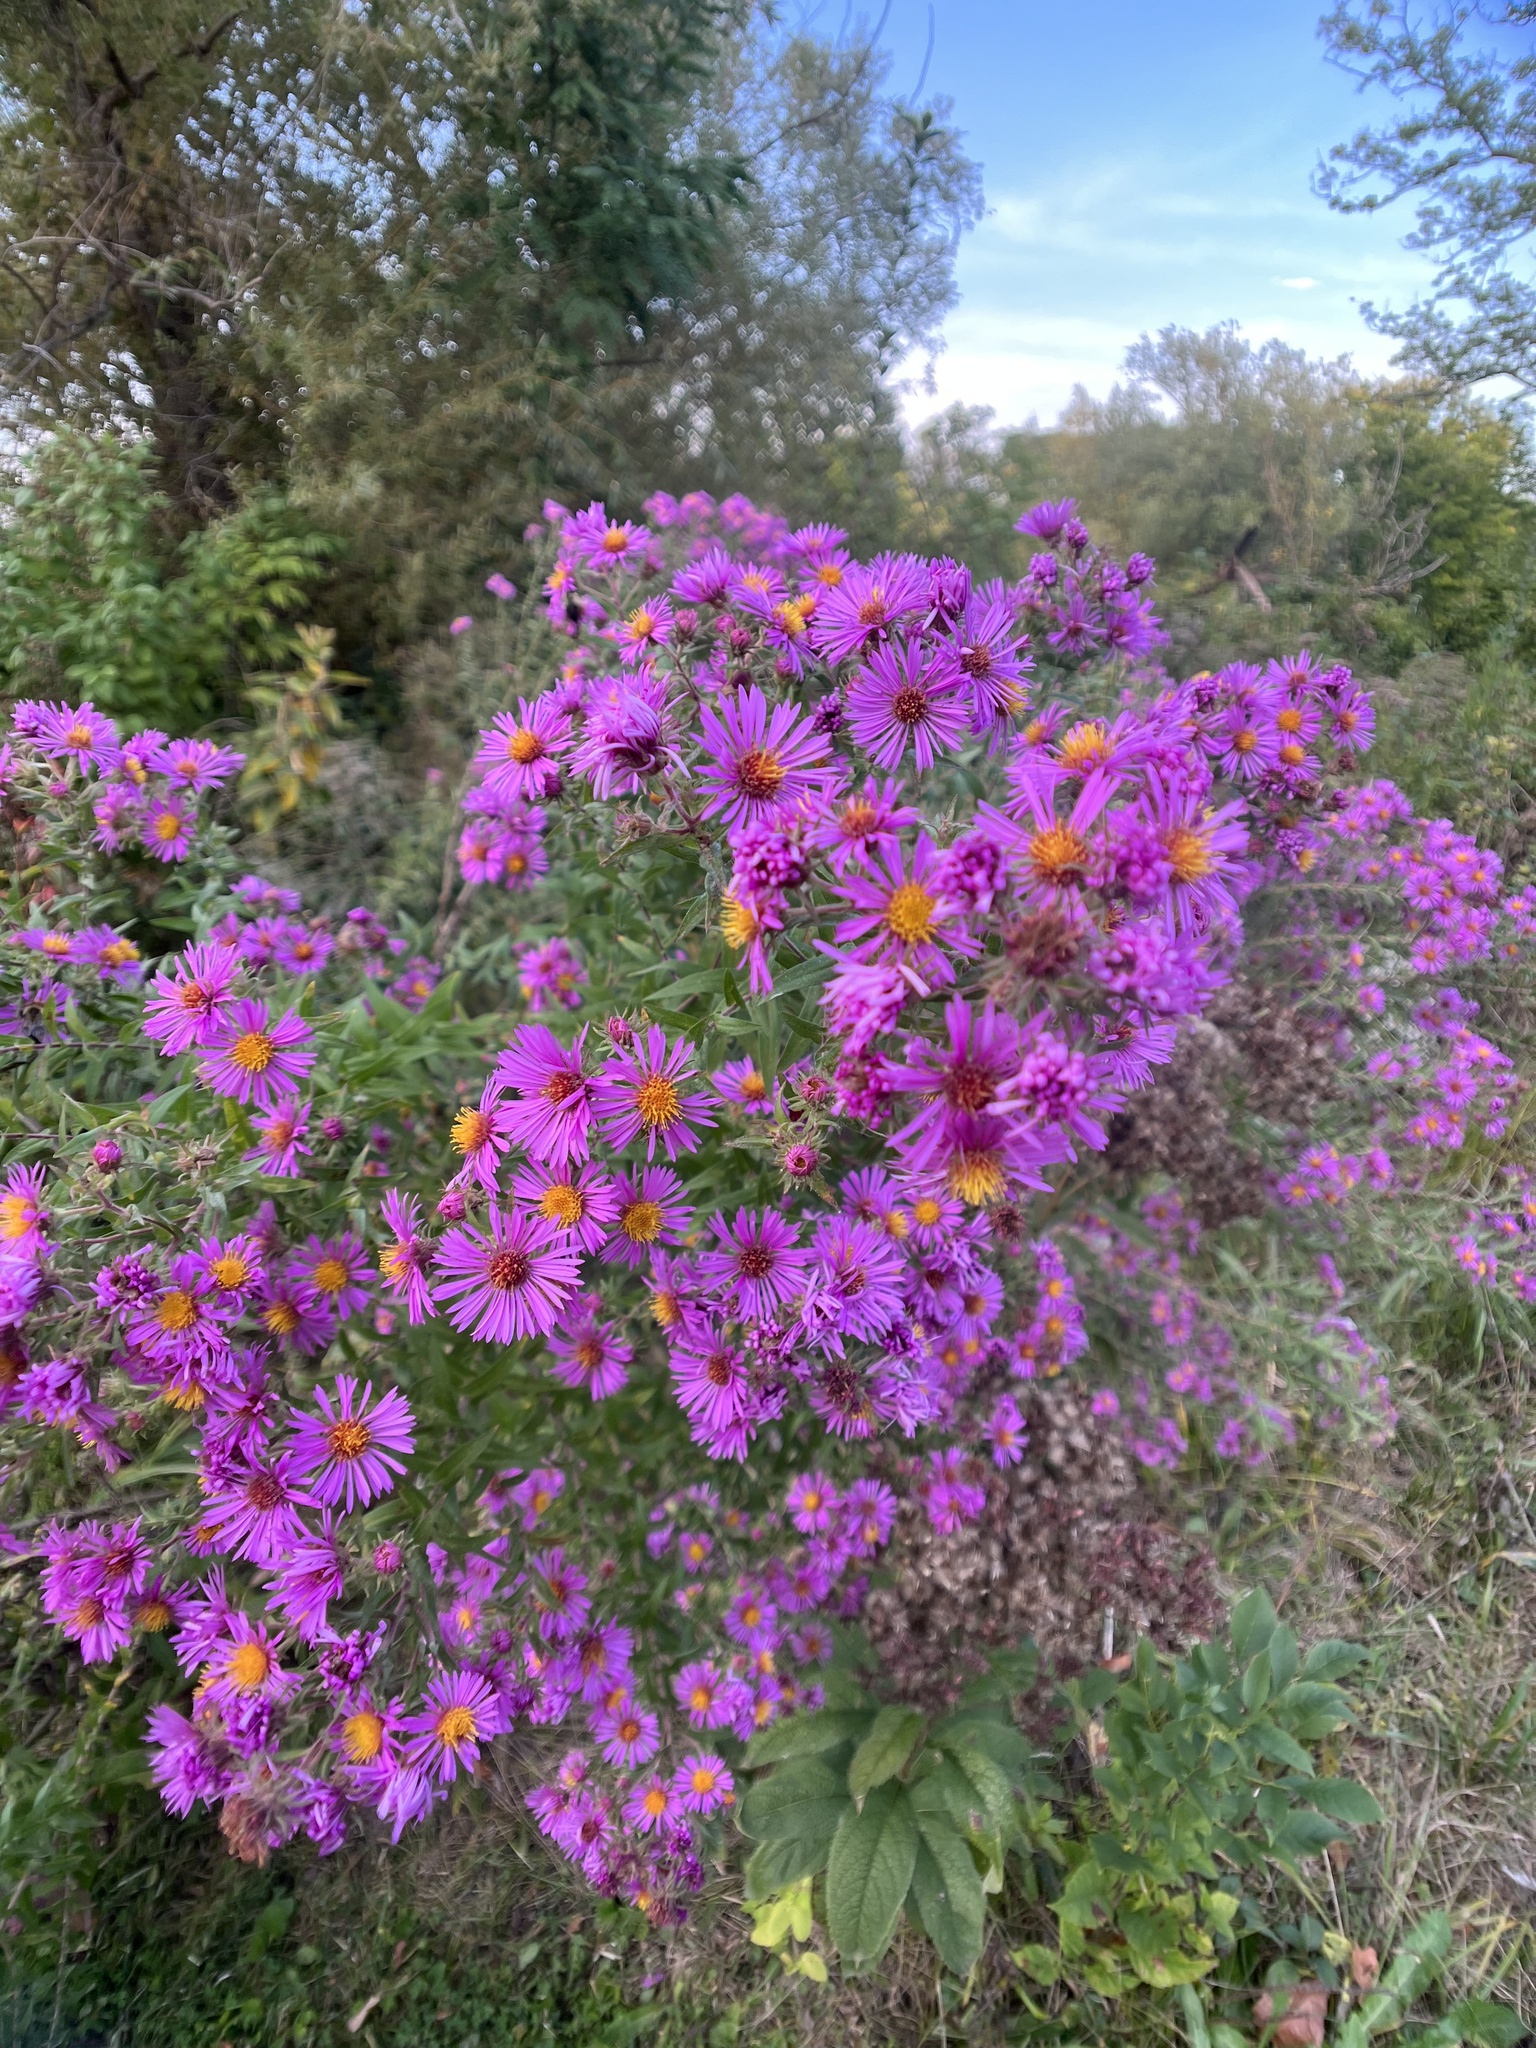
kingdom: Plantae
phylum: Tracheophyta
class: Magnoliopsida
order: Asterales
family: Asteraceae
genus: Symphyotrichum
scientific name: Symphyotrichum novae-angliae
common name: Michaelmas daisy
